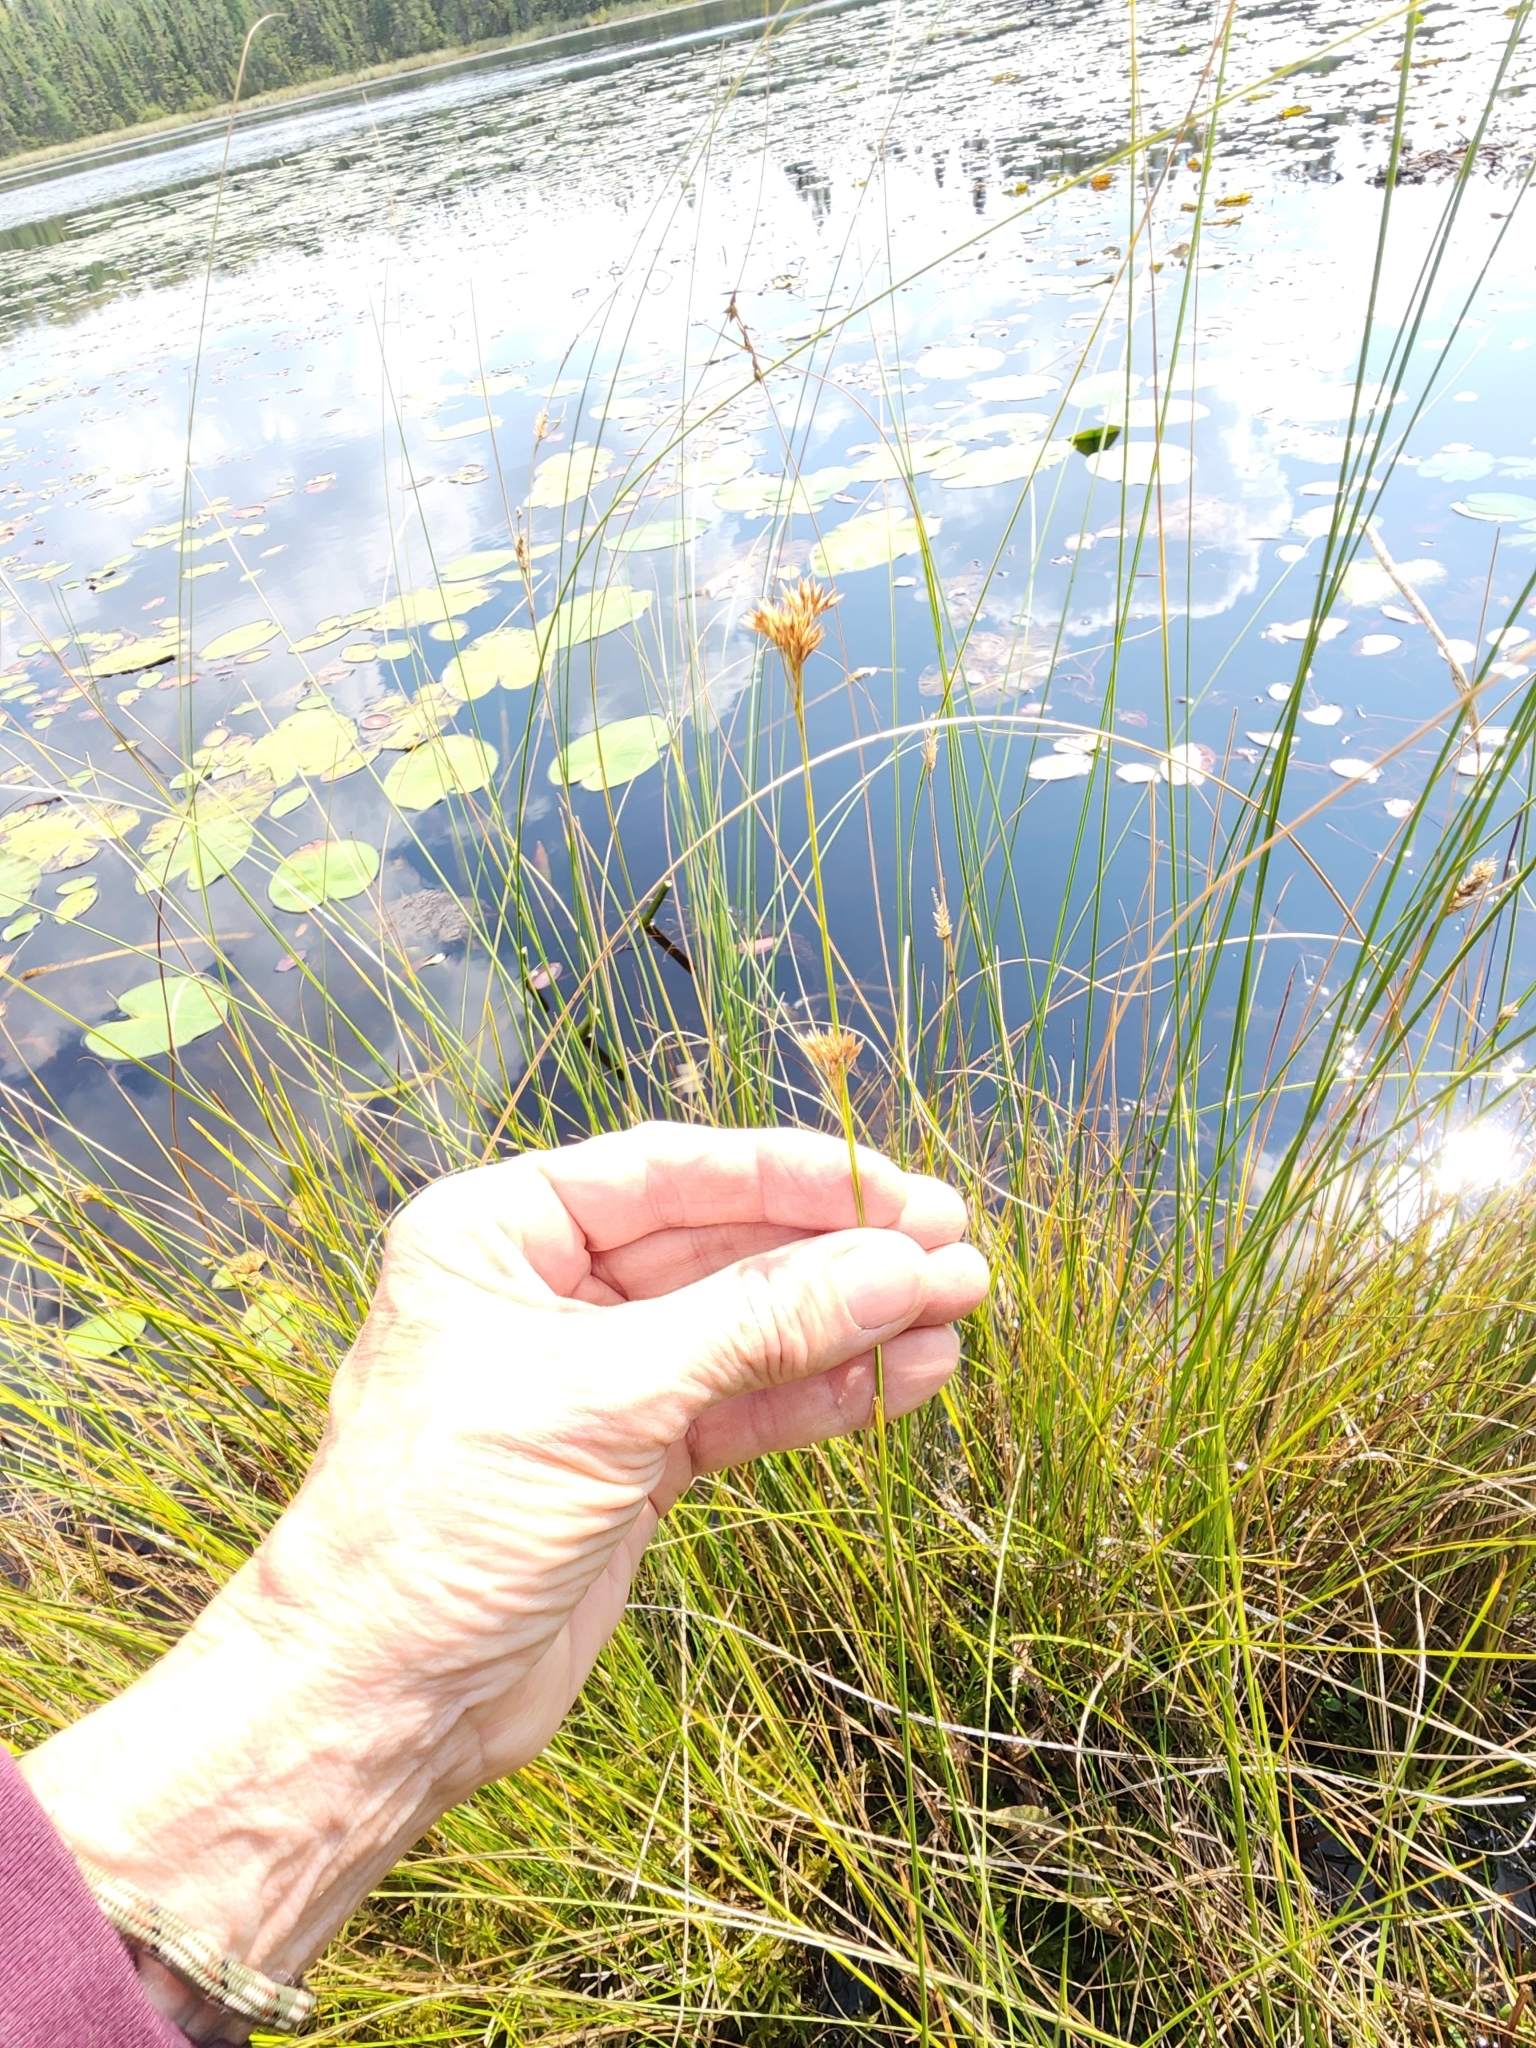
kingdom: Plantae
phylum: Tracheophyta
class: Liliopsida
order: Poales
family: Cyperaceae
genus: Rhynchospora
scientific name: Rhynchospora alba
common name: White beak-sedge
